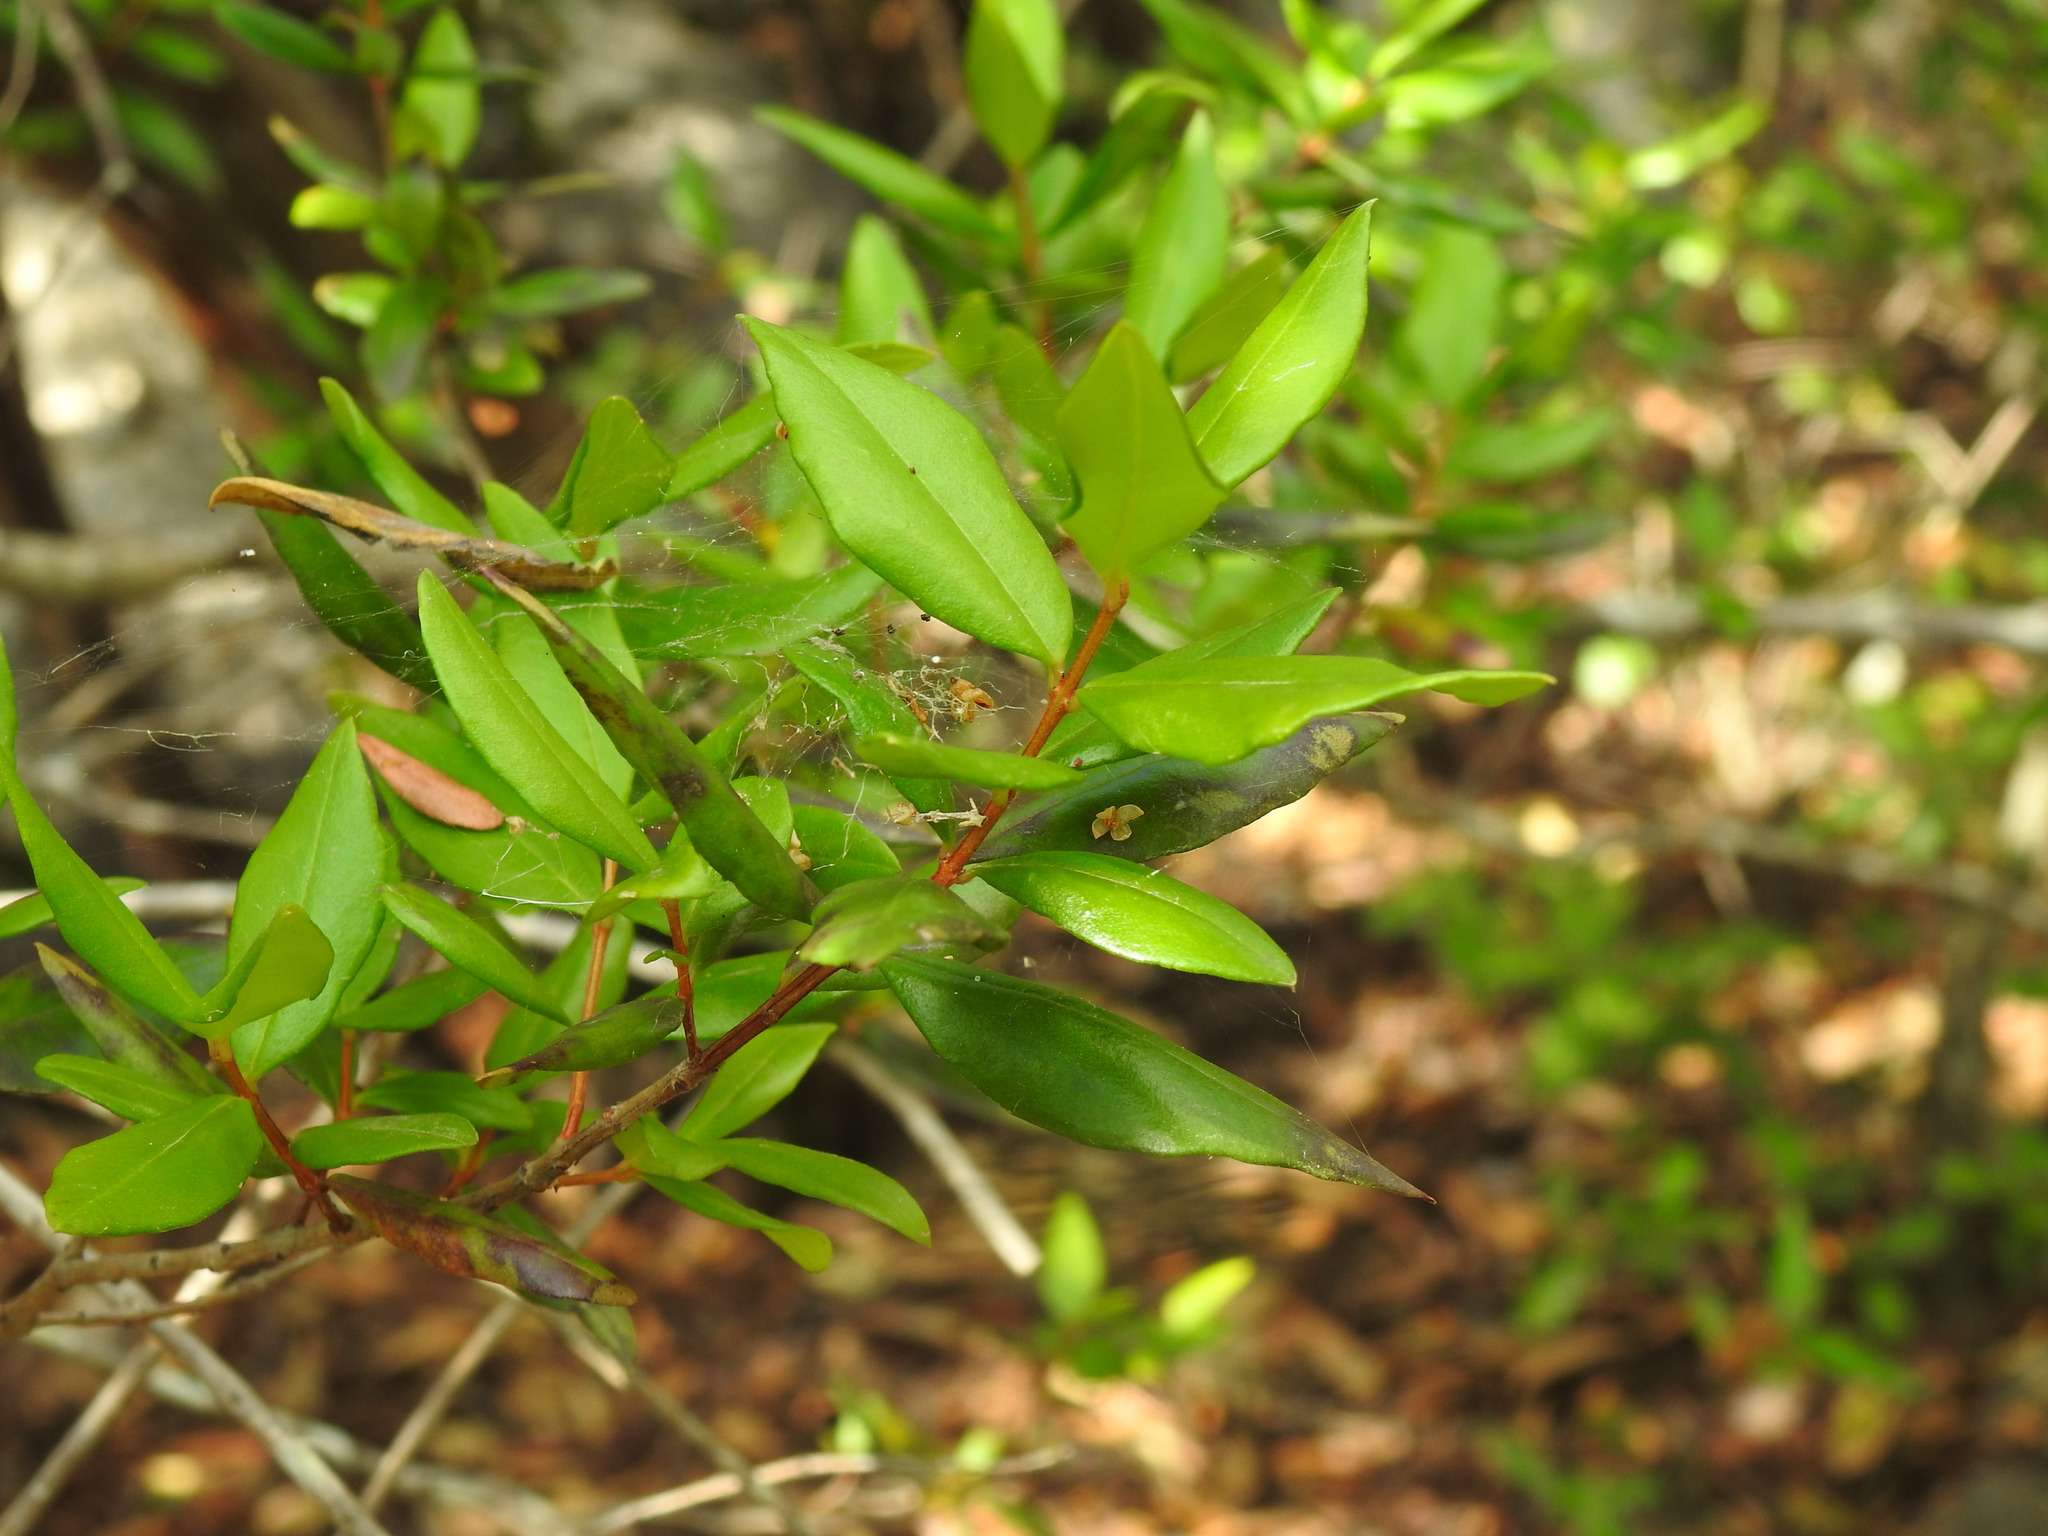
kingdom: Plantae
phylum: Tracheophyta
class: Magnoliopsida
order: Myrtales
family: Myrtaceae
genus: Myrtus
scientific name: Myrtus communis
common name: Myrtle
